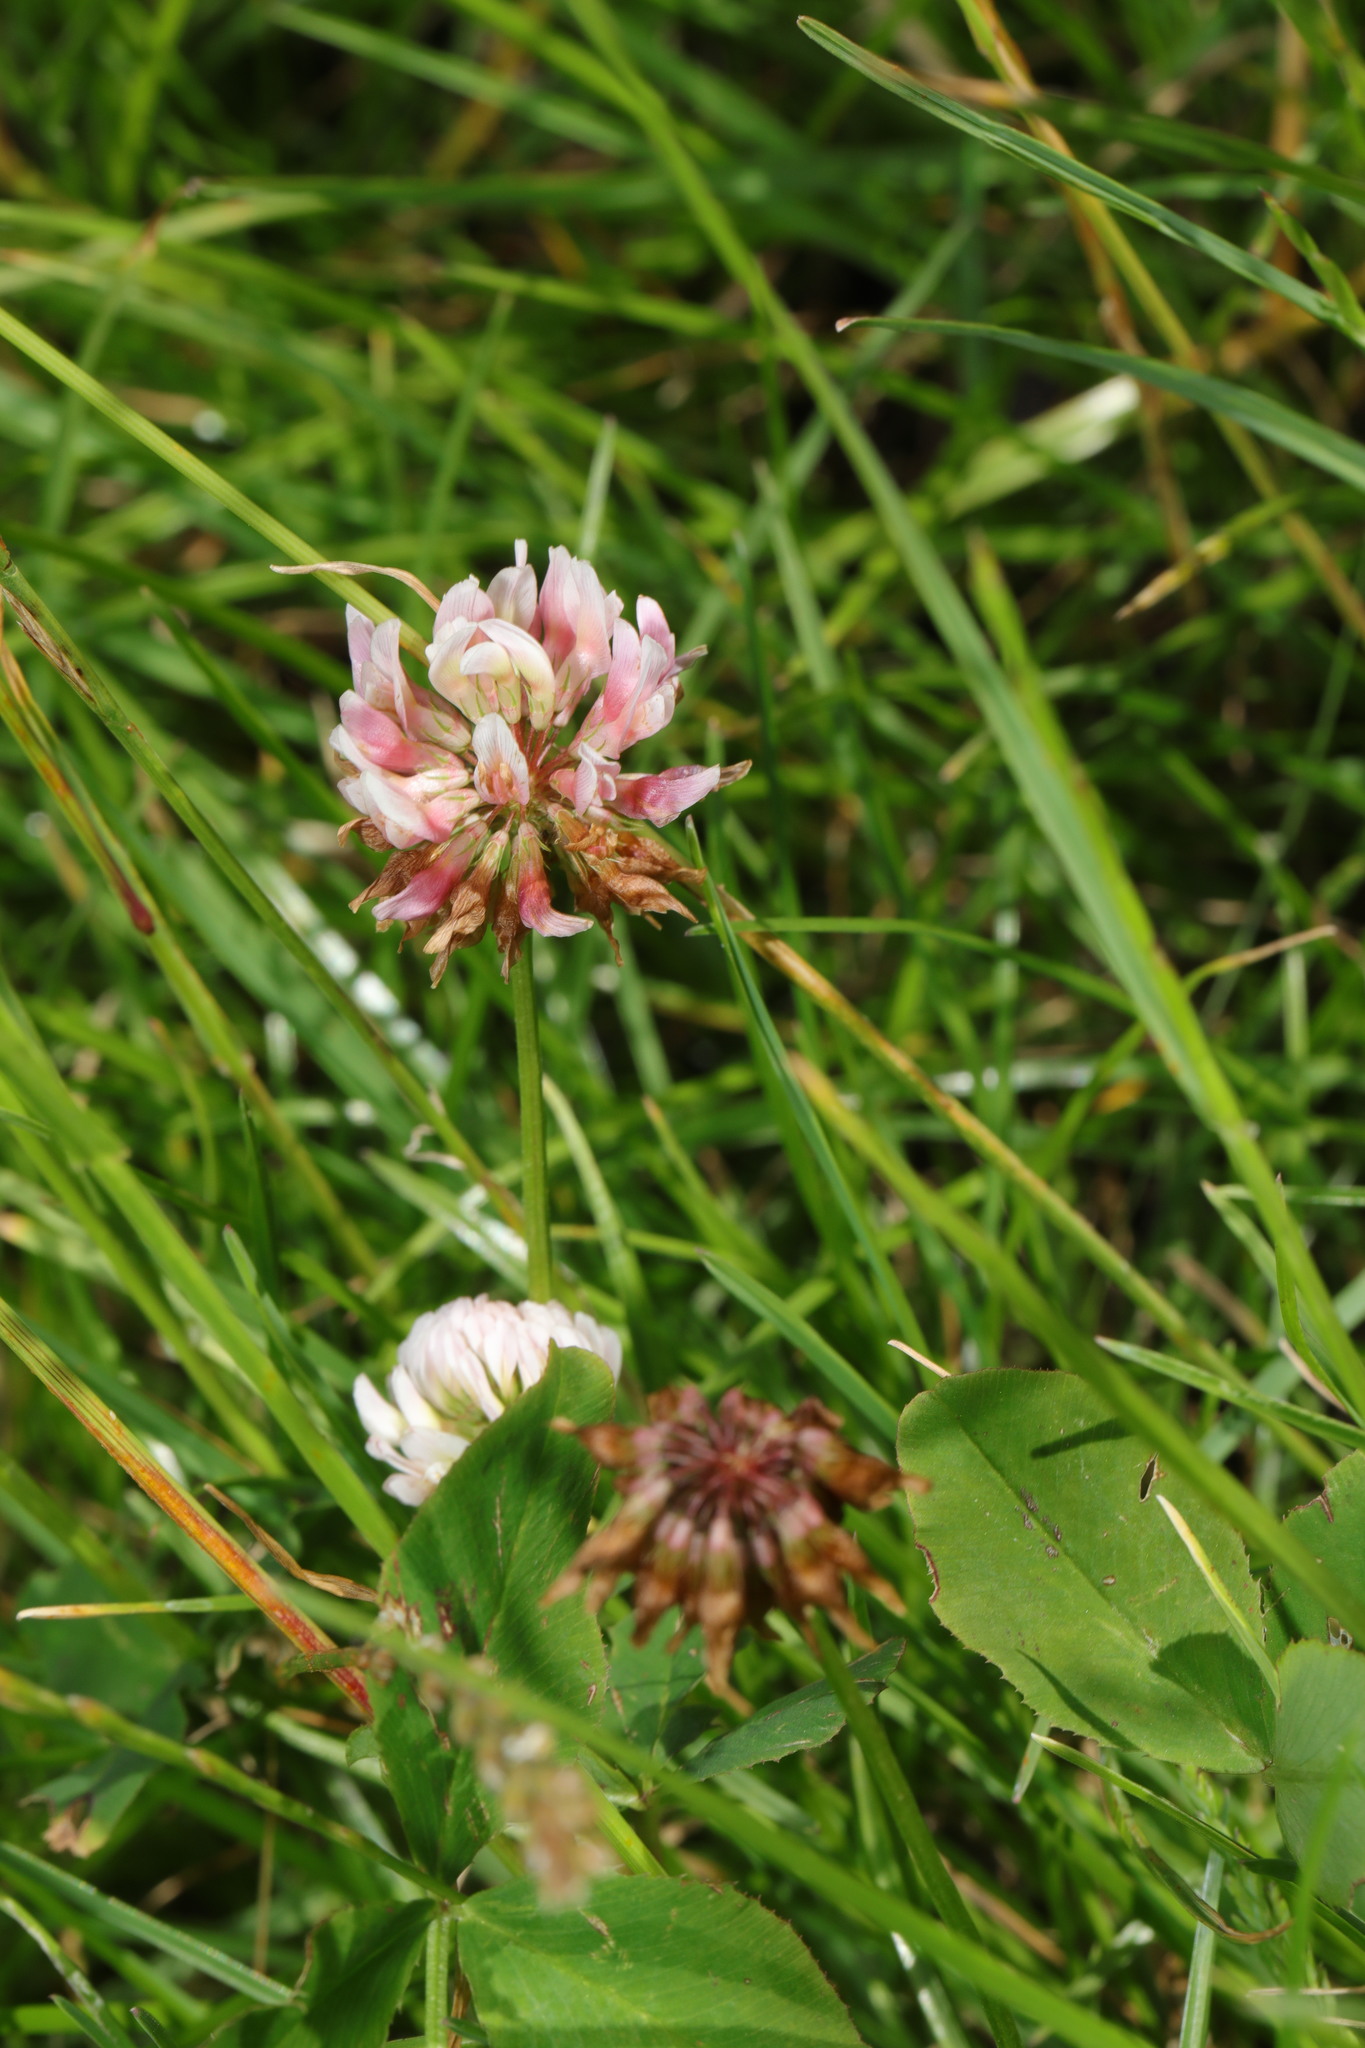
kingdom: Plantae
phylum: Tracheophyta
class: Magnoliopsida
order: Fabales
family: Fabaceae
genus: Trifolium
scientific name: Trifolium hybridum
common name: Alsike clover
